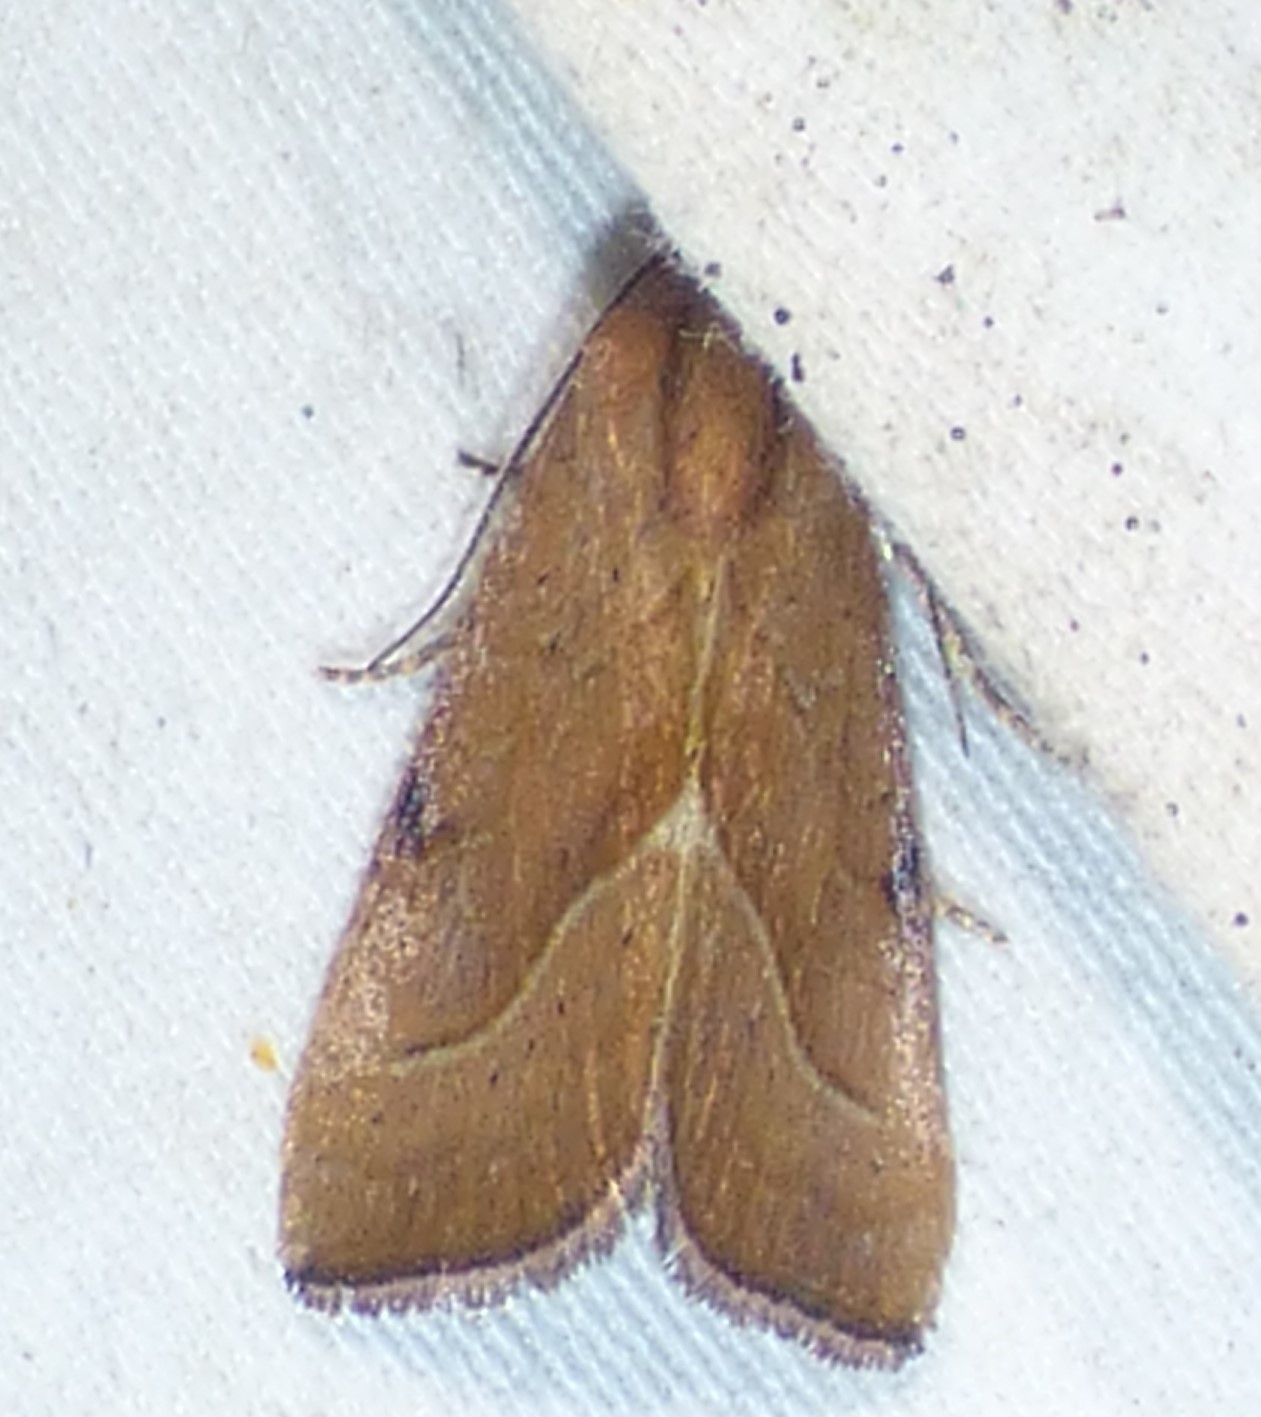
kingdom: Animalia
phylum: Arthropoda
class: Insecta
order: Lepidoptera
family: Noctuidae
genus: Galgula
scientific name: Galgula partita
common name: Wedgeling
